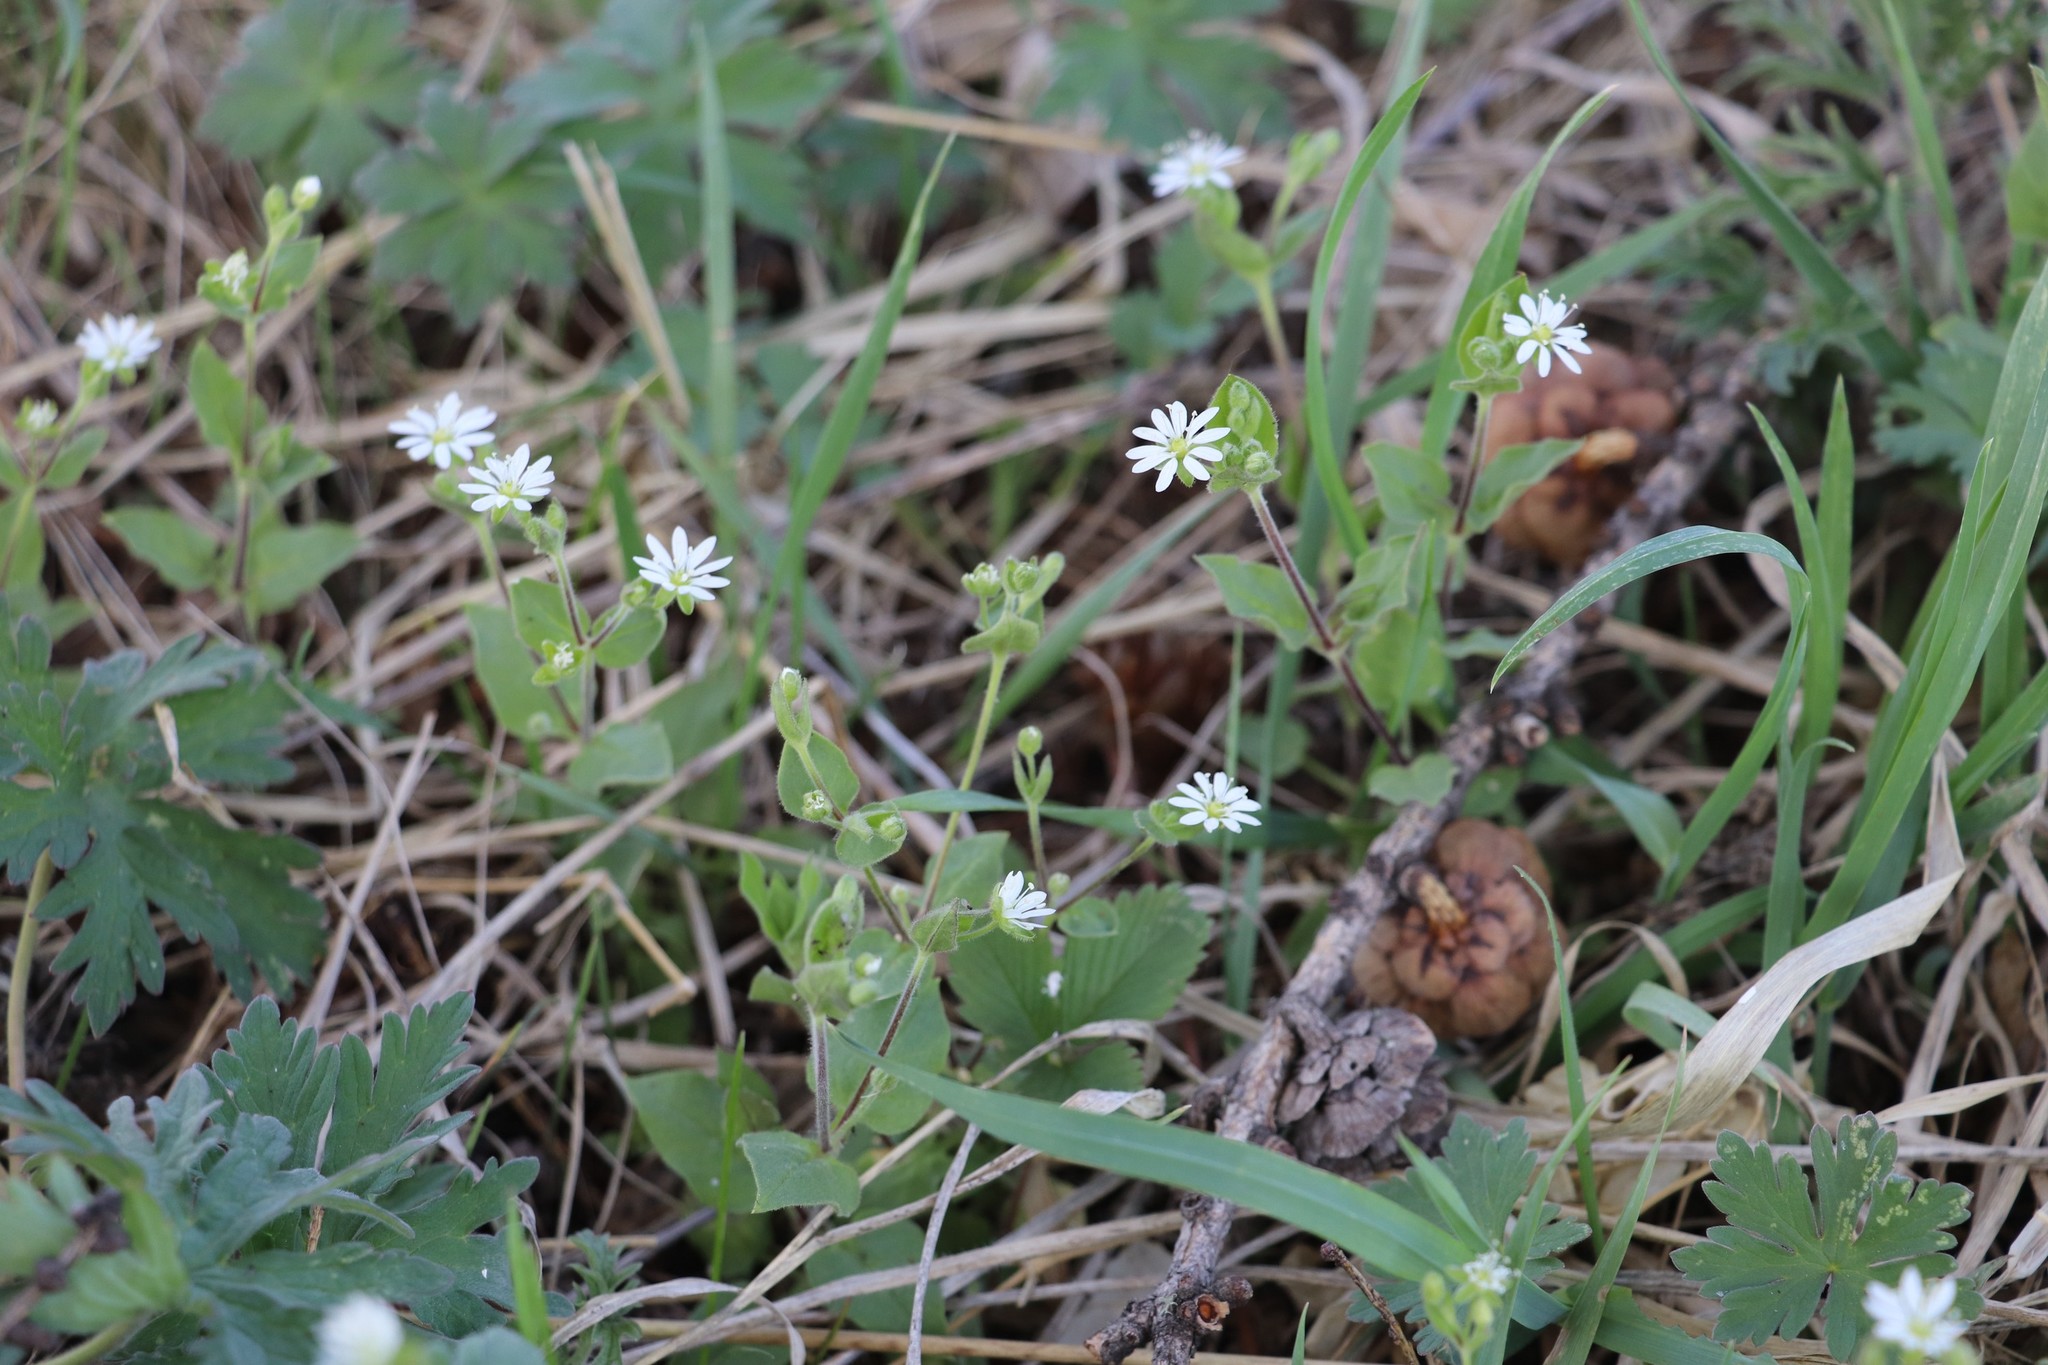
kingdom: Plantae
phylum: Tracheophyta
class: Magnoliopsida
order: Caryophyllales
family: Caryophyllaceae
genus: Stellaria
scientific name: Stellaria bungeana
